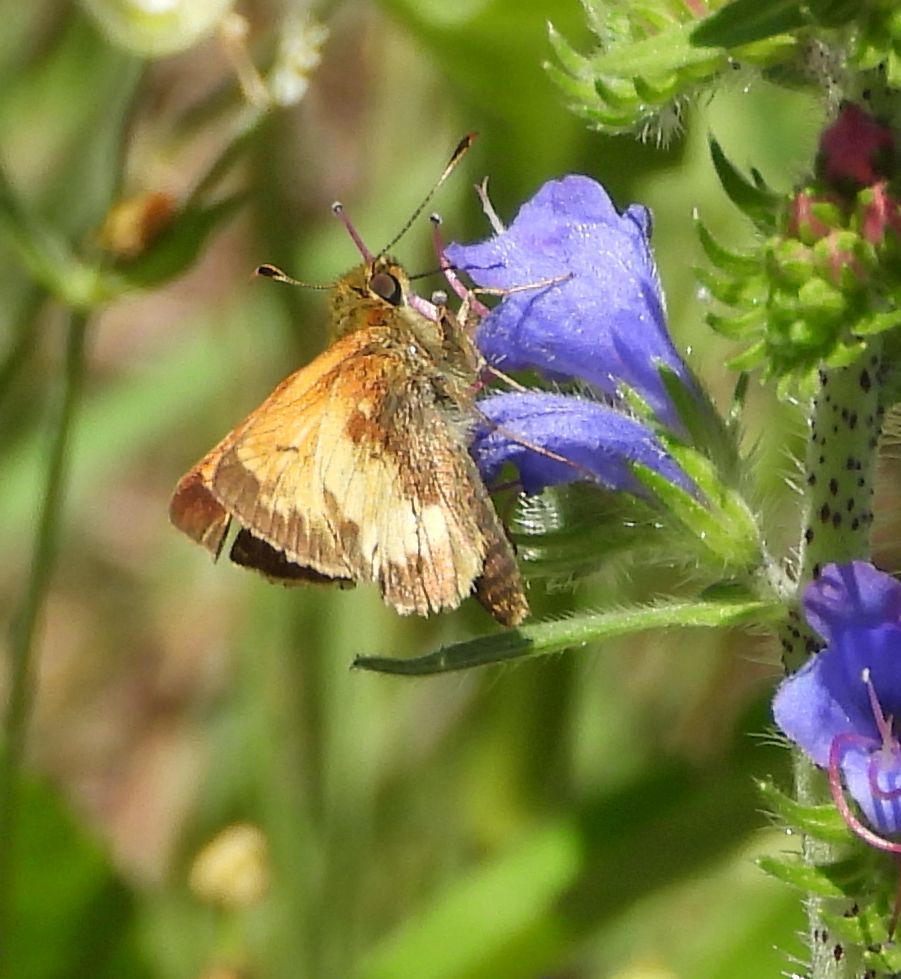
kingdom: Animalia
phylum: Arthropoda
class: Insecta
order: Lepidoptera
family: Hesperiidae
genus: Lon
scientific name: Lon hobomok
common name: Hobomok skipper
